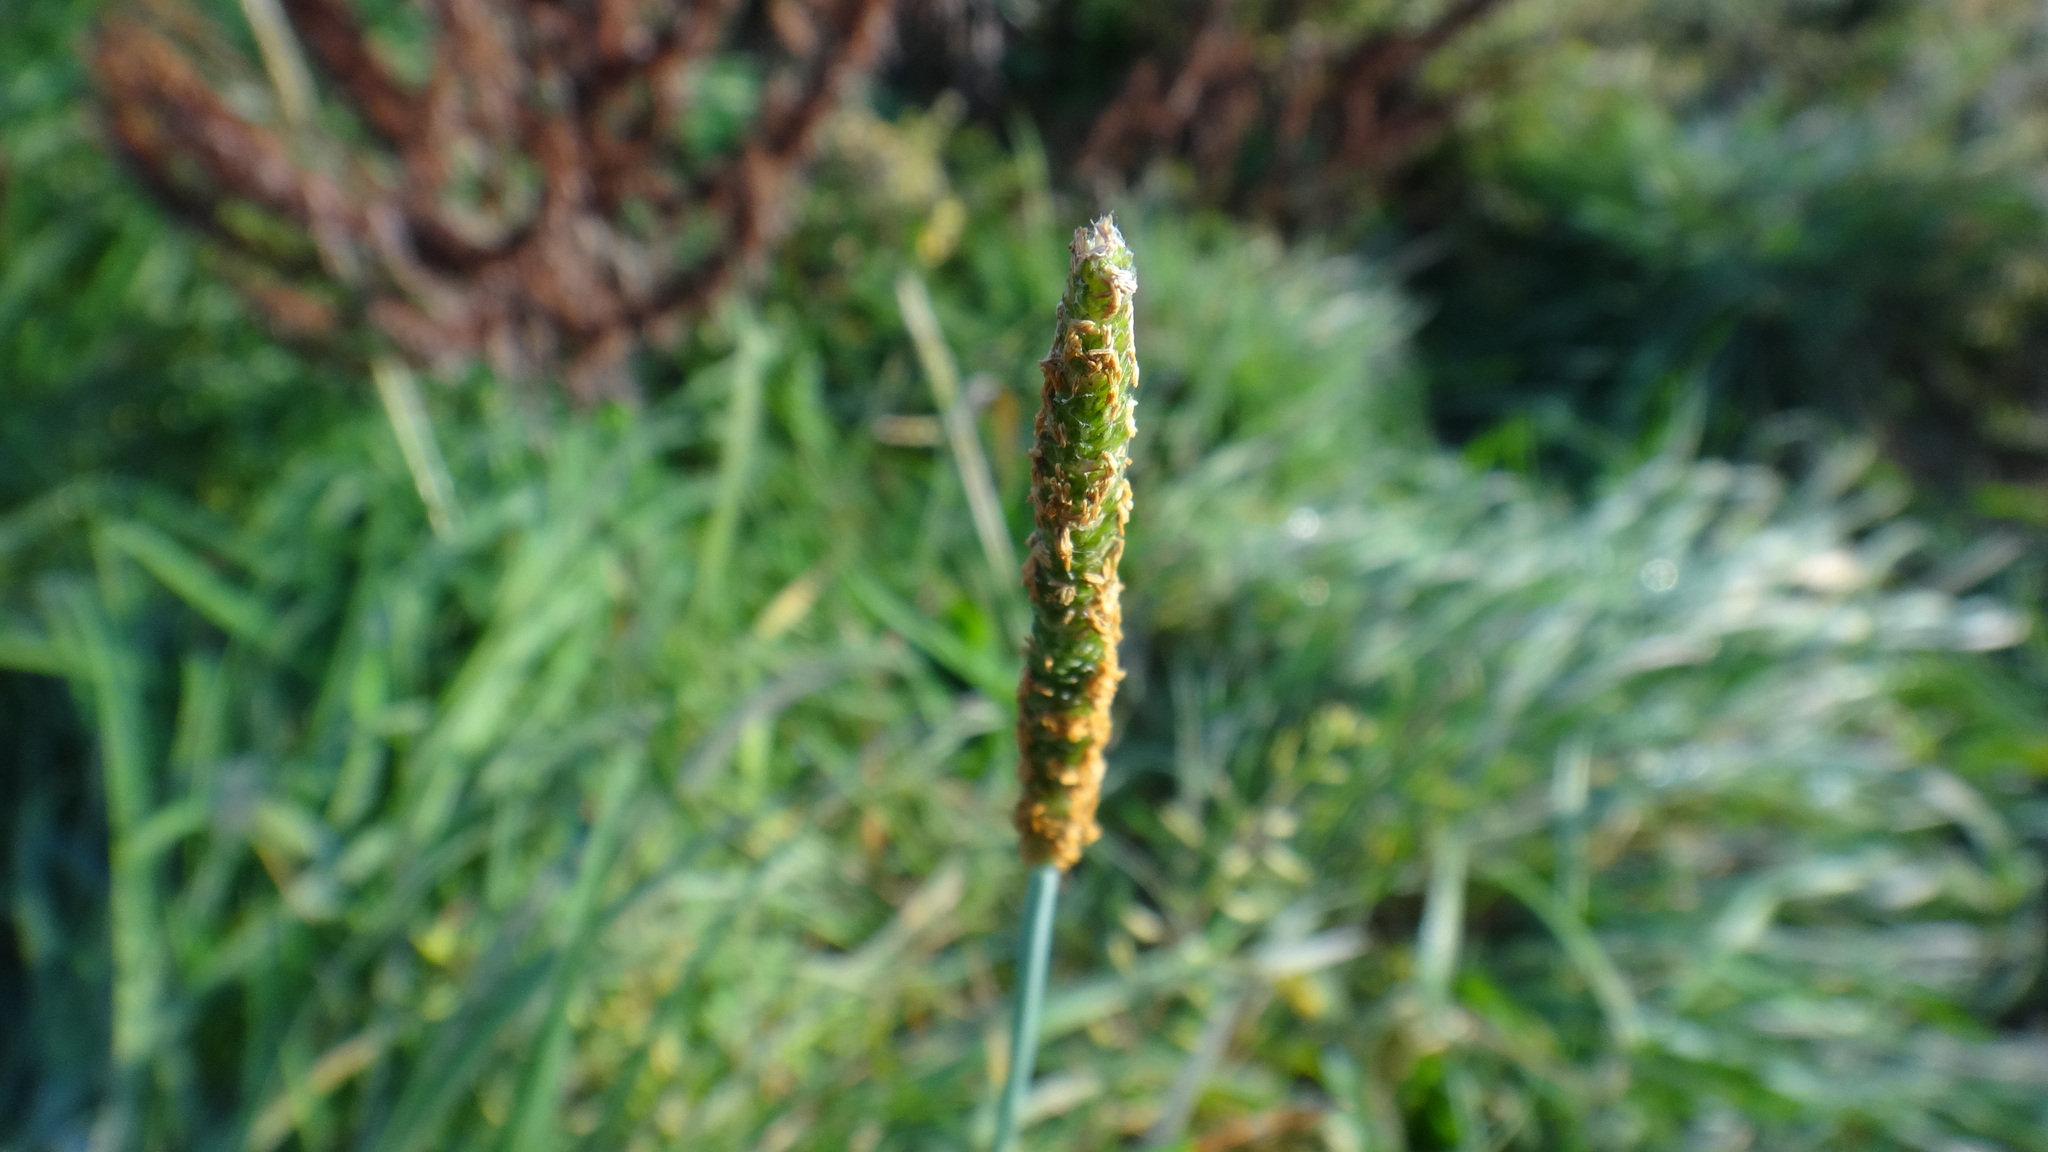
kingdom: Plantae
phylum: Tracheophyta
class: Liliopsida
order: Poales
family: Poaceae
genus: Alopecurus
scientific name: Alopecurus aequalis
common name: Orange foxtail
